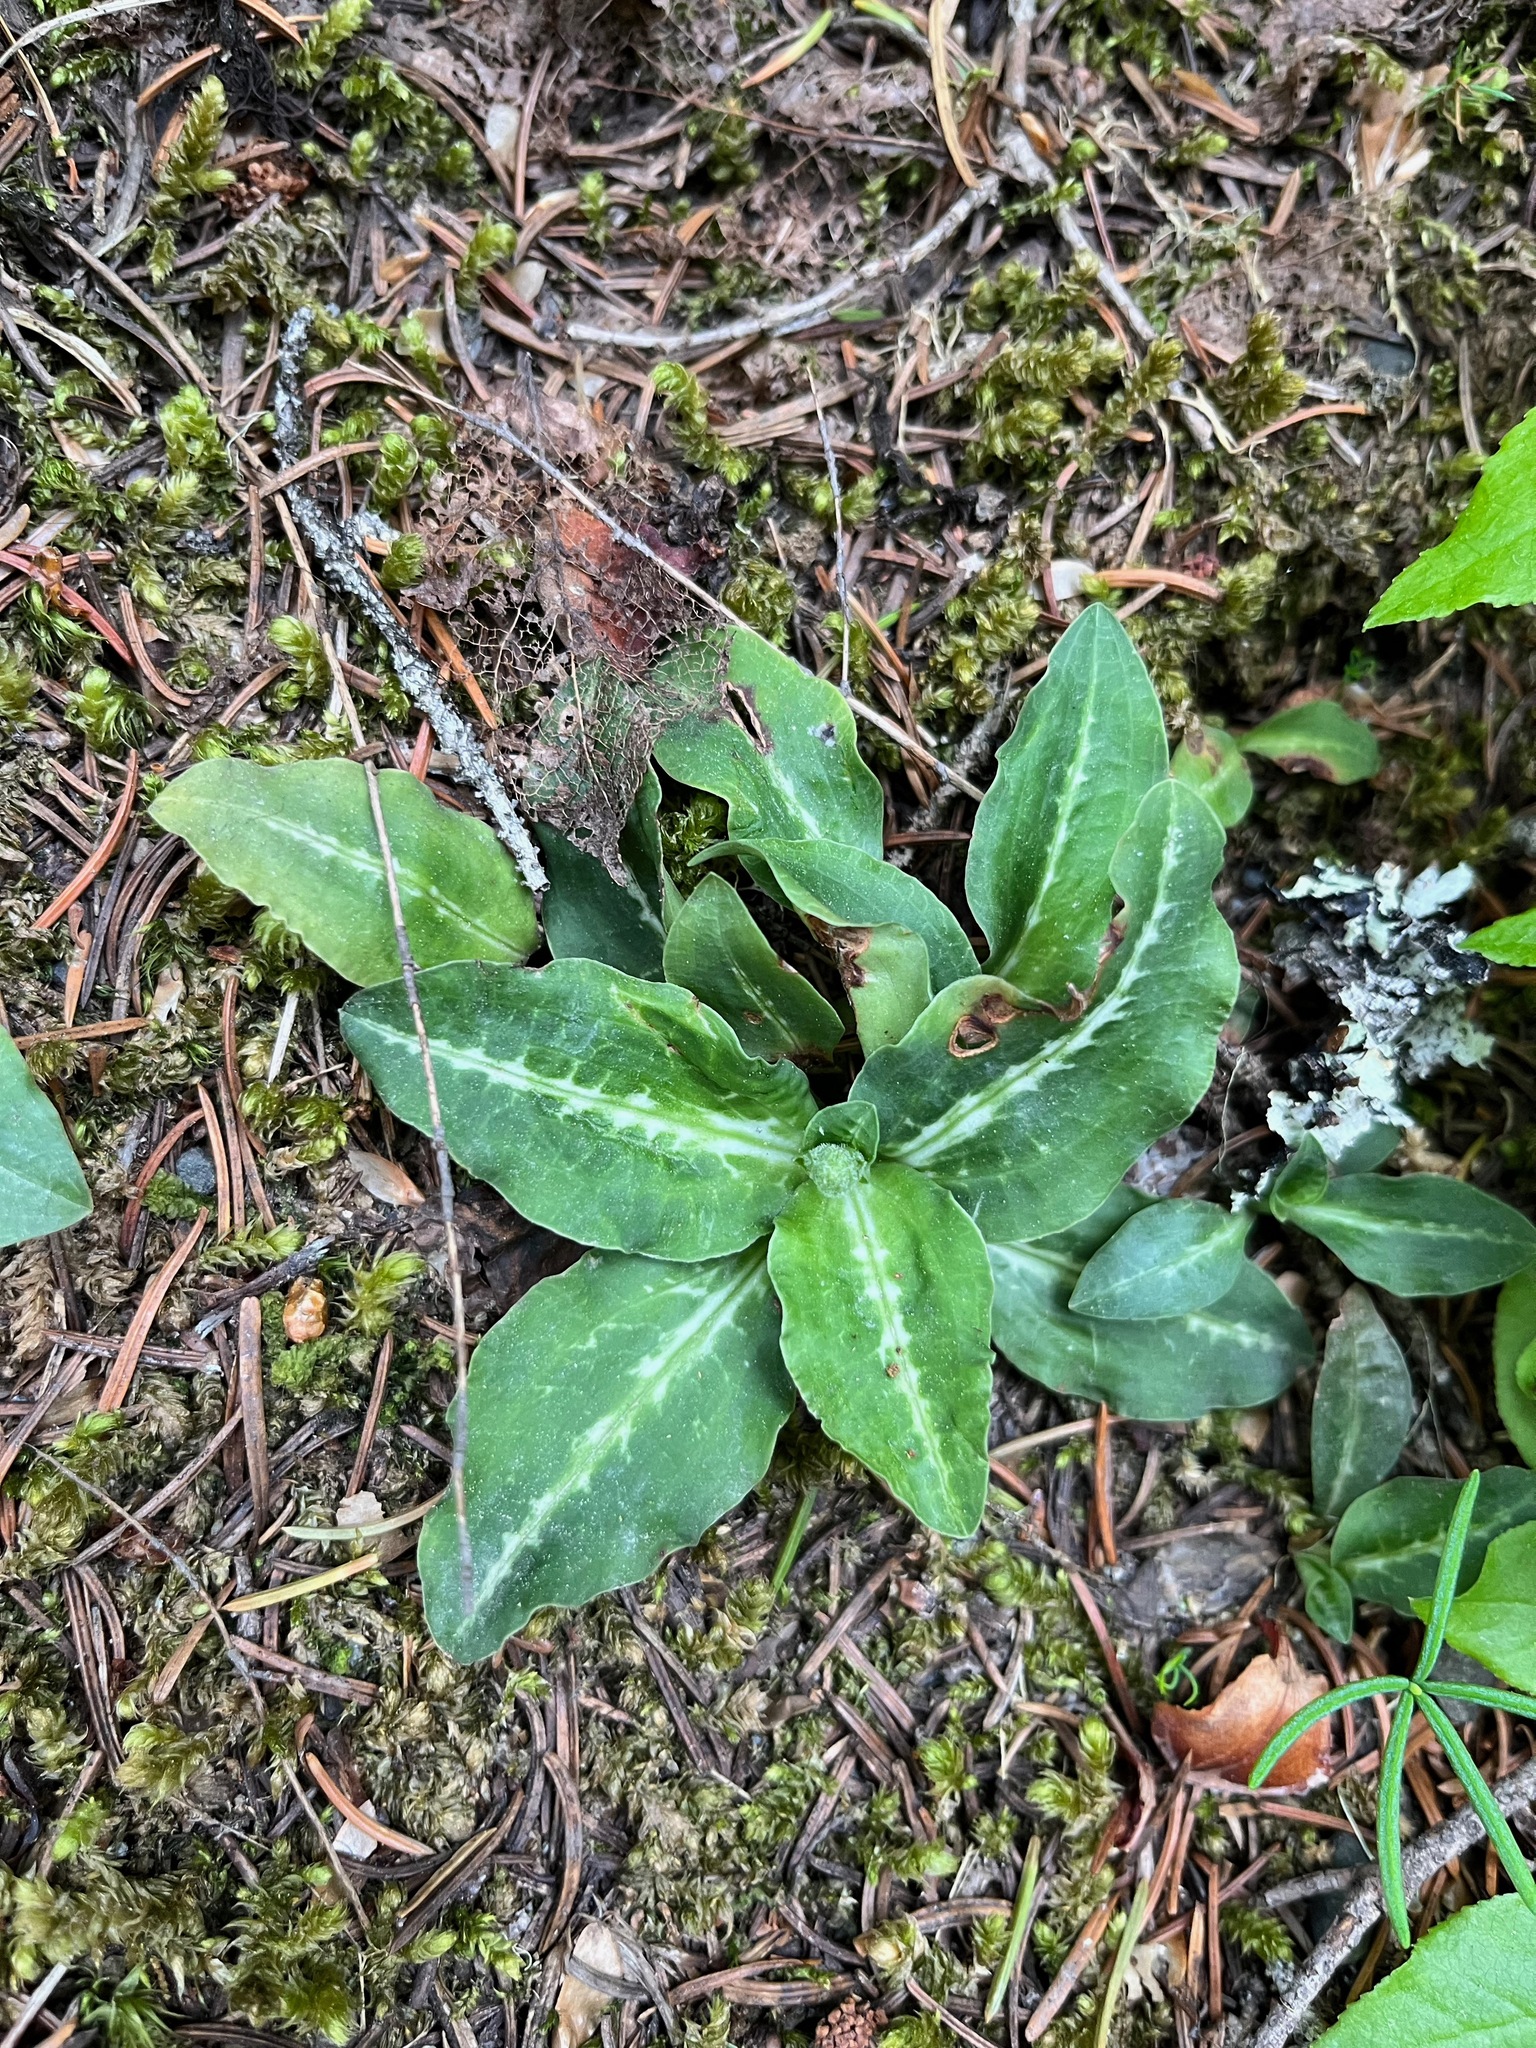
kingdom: Plantae
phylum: Tracheophyta
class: Liliopsida
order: Asparagales
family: Orchidaceae
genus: Goodyera
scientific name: Goodyera oblongifolia
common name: Giant rattlesnake-plantain
